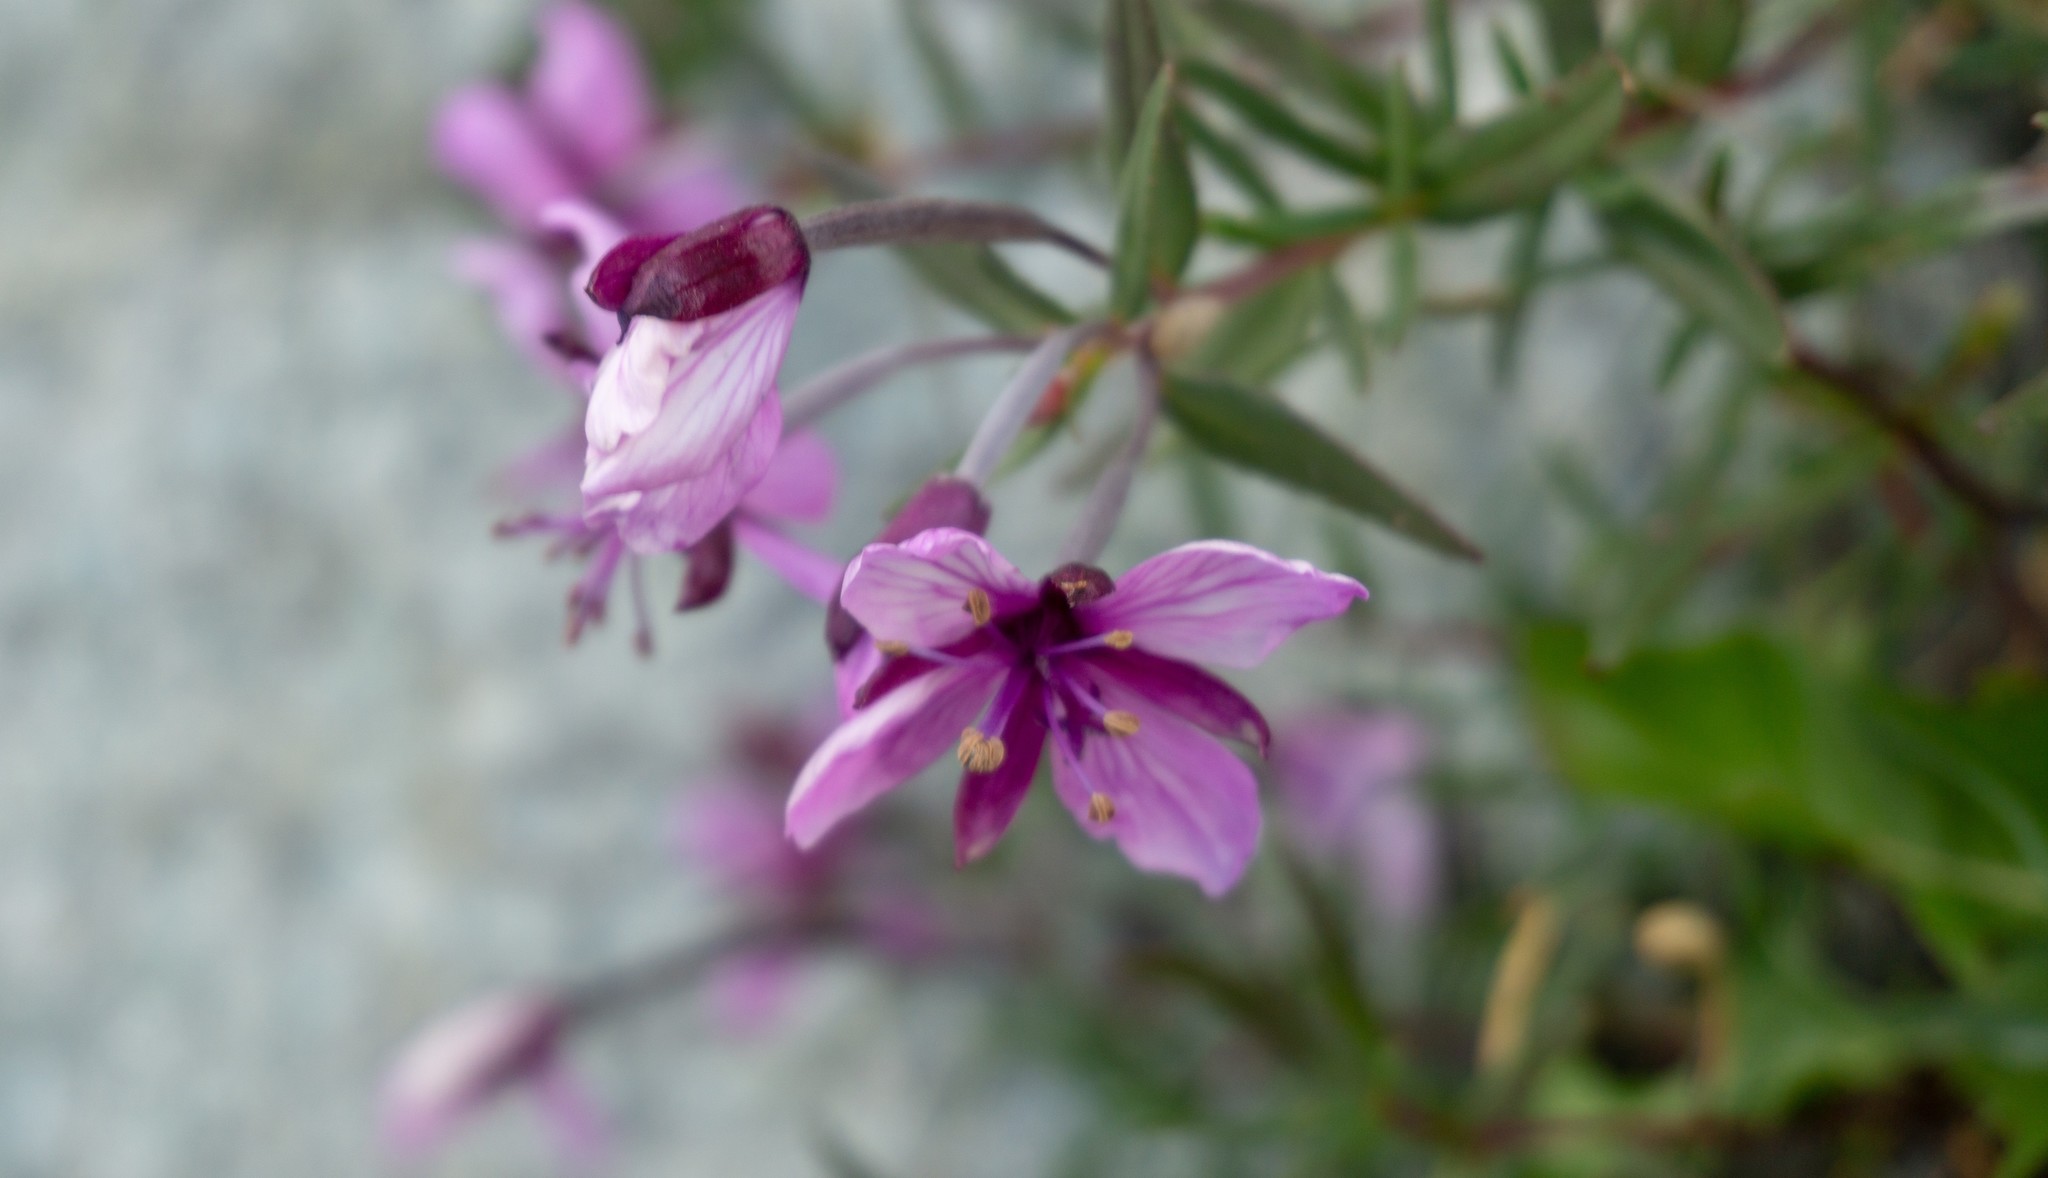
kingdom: Plantae
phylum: Tracheophyta
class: Magnoliopsida
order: Myrtales
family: Onagraceae
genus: Chamaenerion
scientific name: Chamaenerion fleischeri
